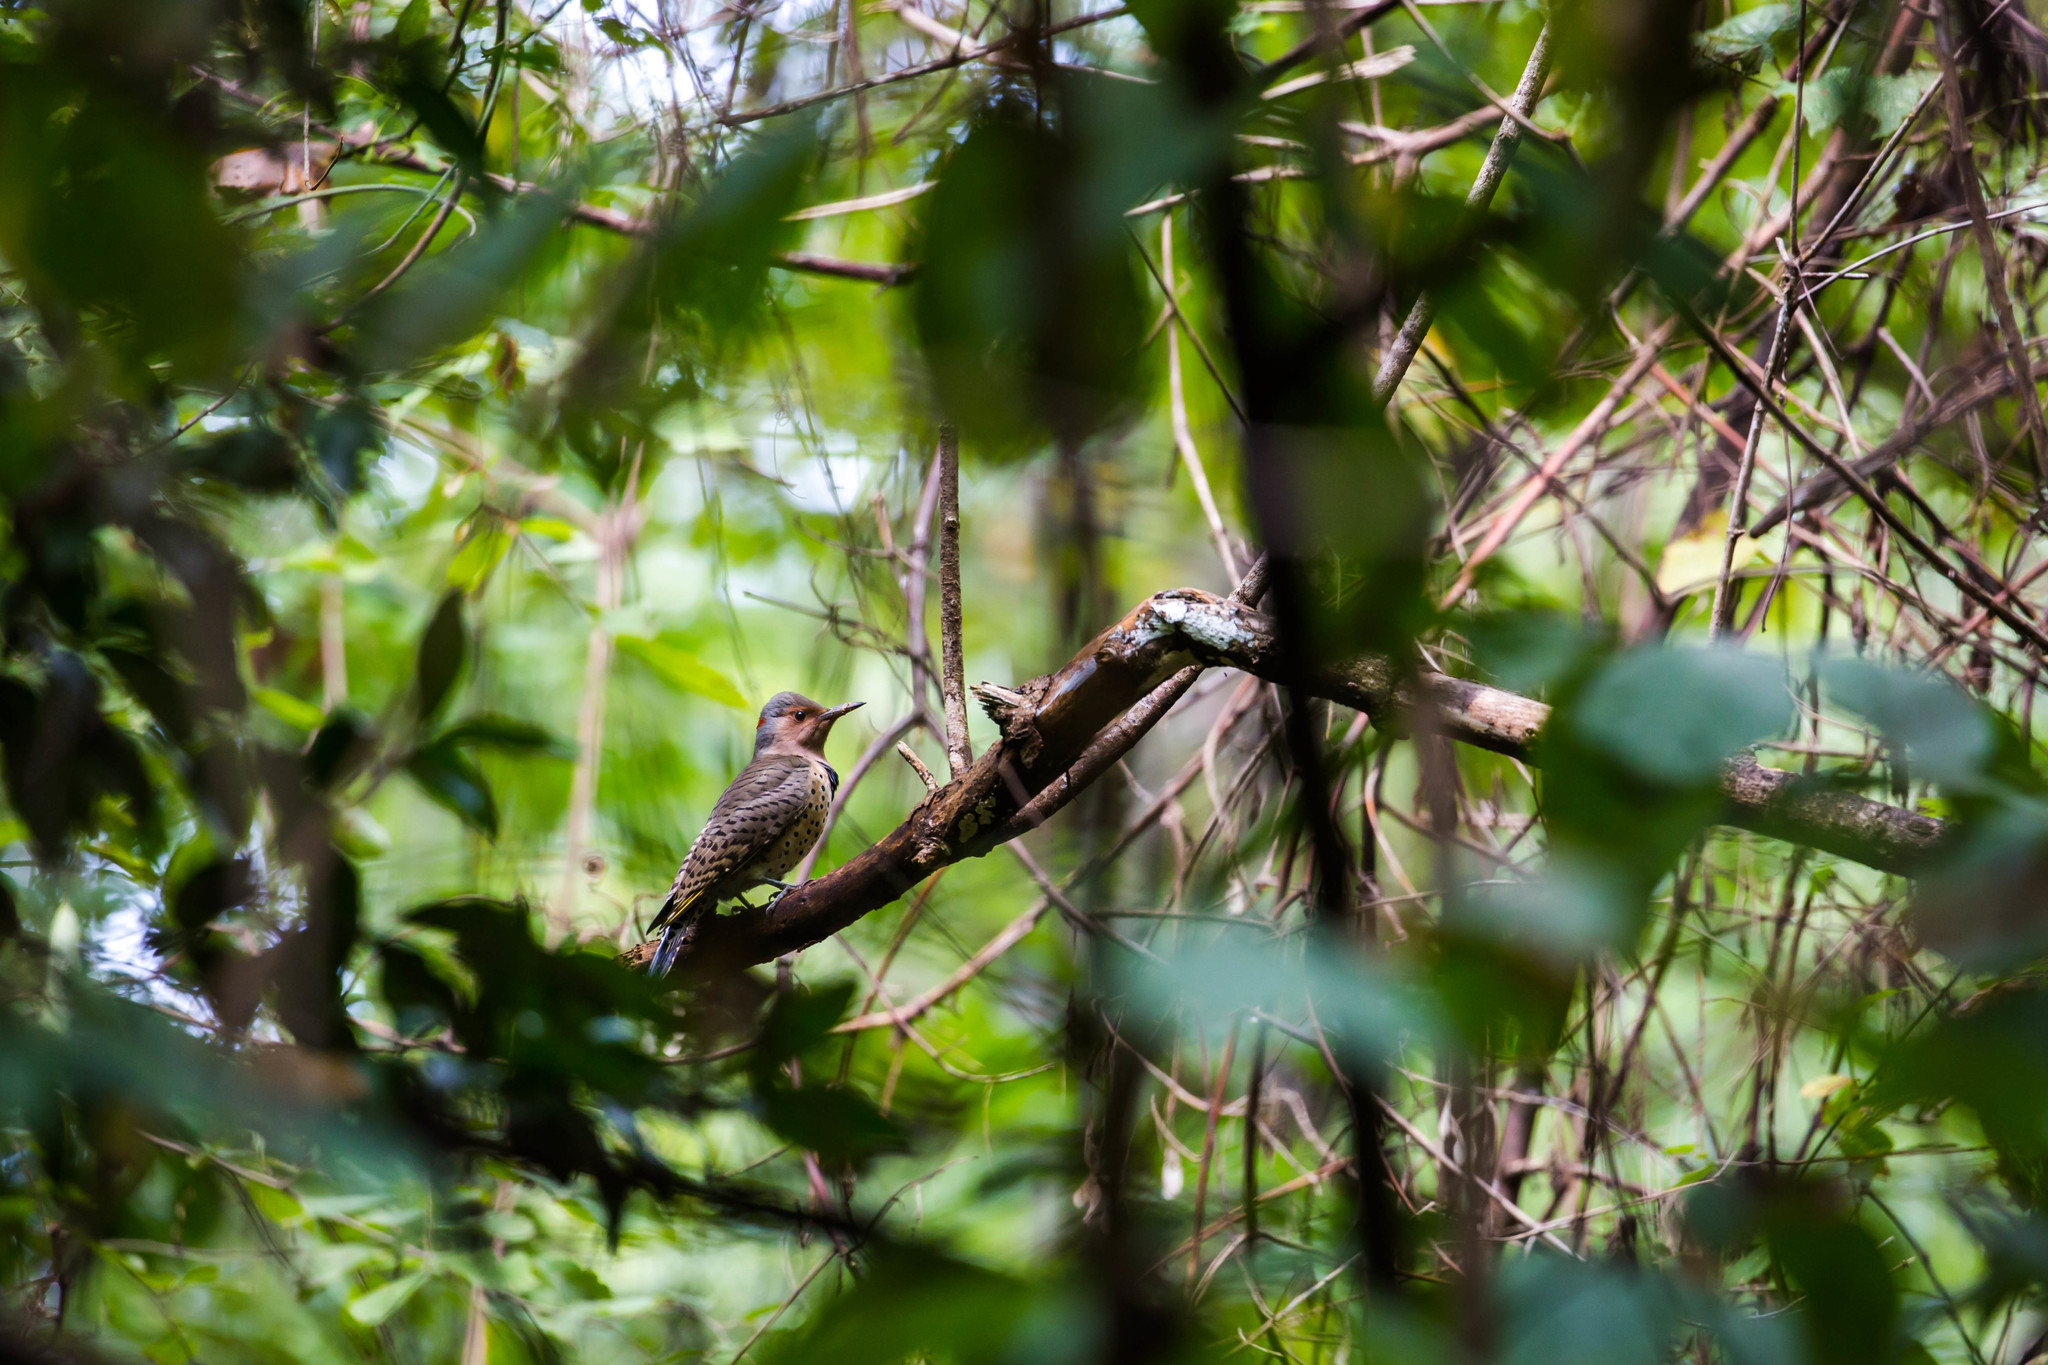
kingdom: Animalia
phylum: Chordata
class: Aves
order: Piciformes
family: Picidae
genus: Colaptes
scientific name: Colaptes auratus
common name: Northern flicker
